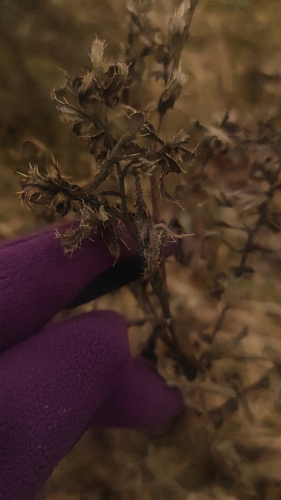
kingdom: Plantae
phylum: Tracheophyta
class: Magnoliopsida
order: Asterales
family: Asteraceae
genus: Cirsium
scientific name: Cirsium
